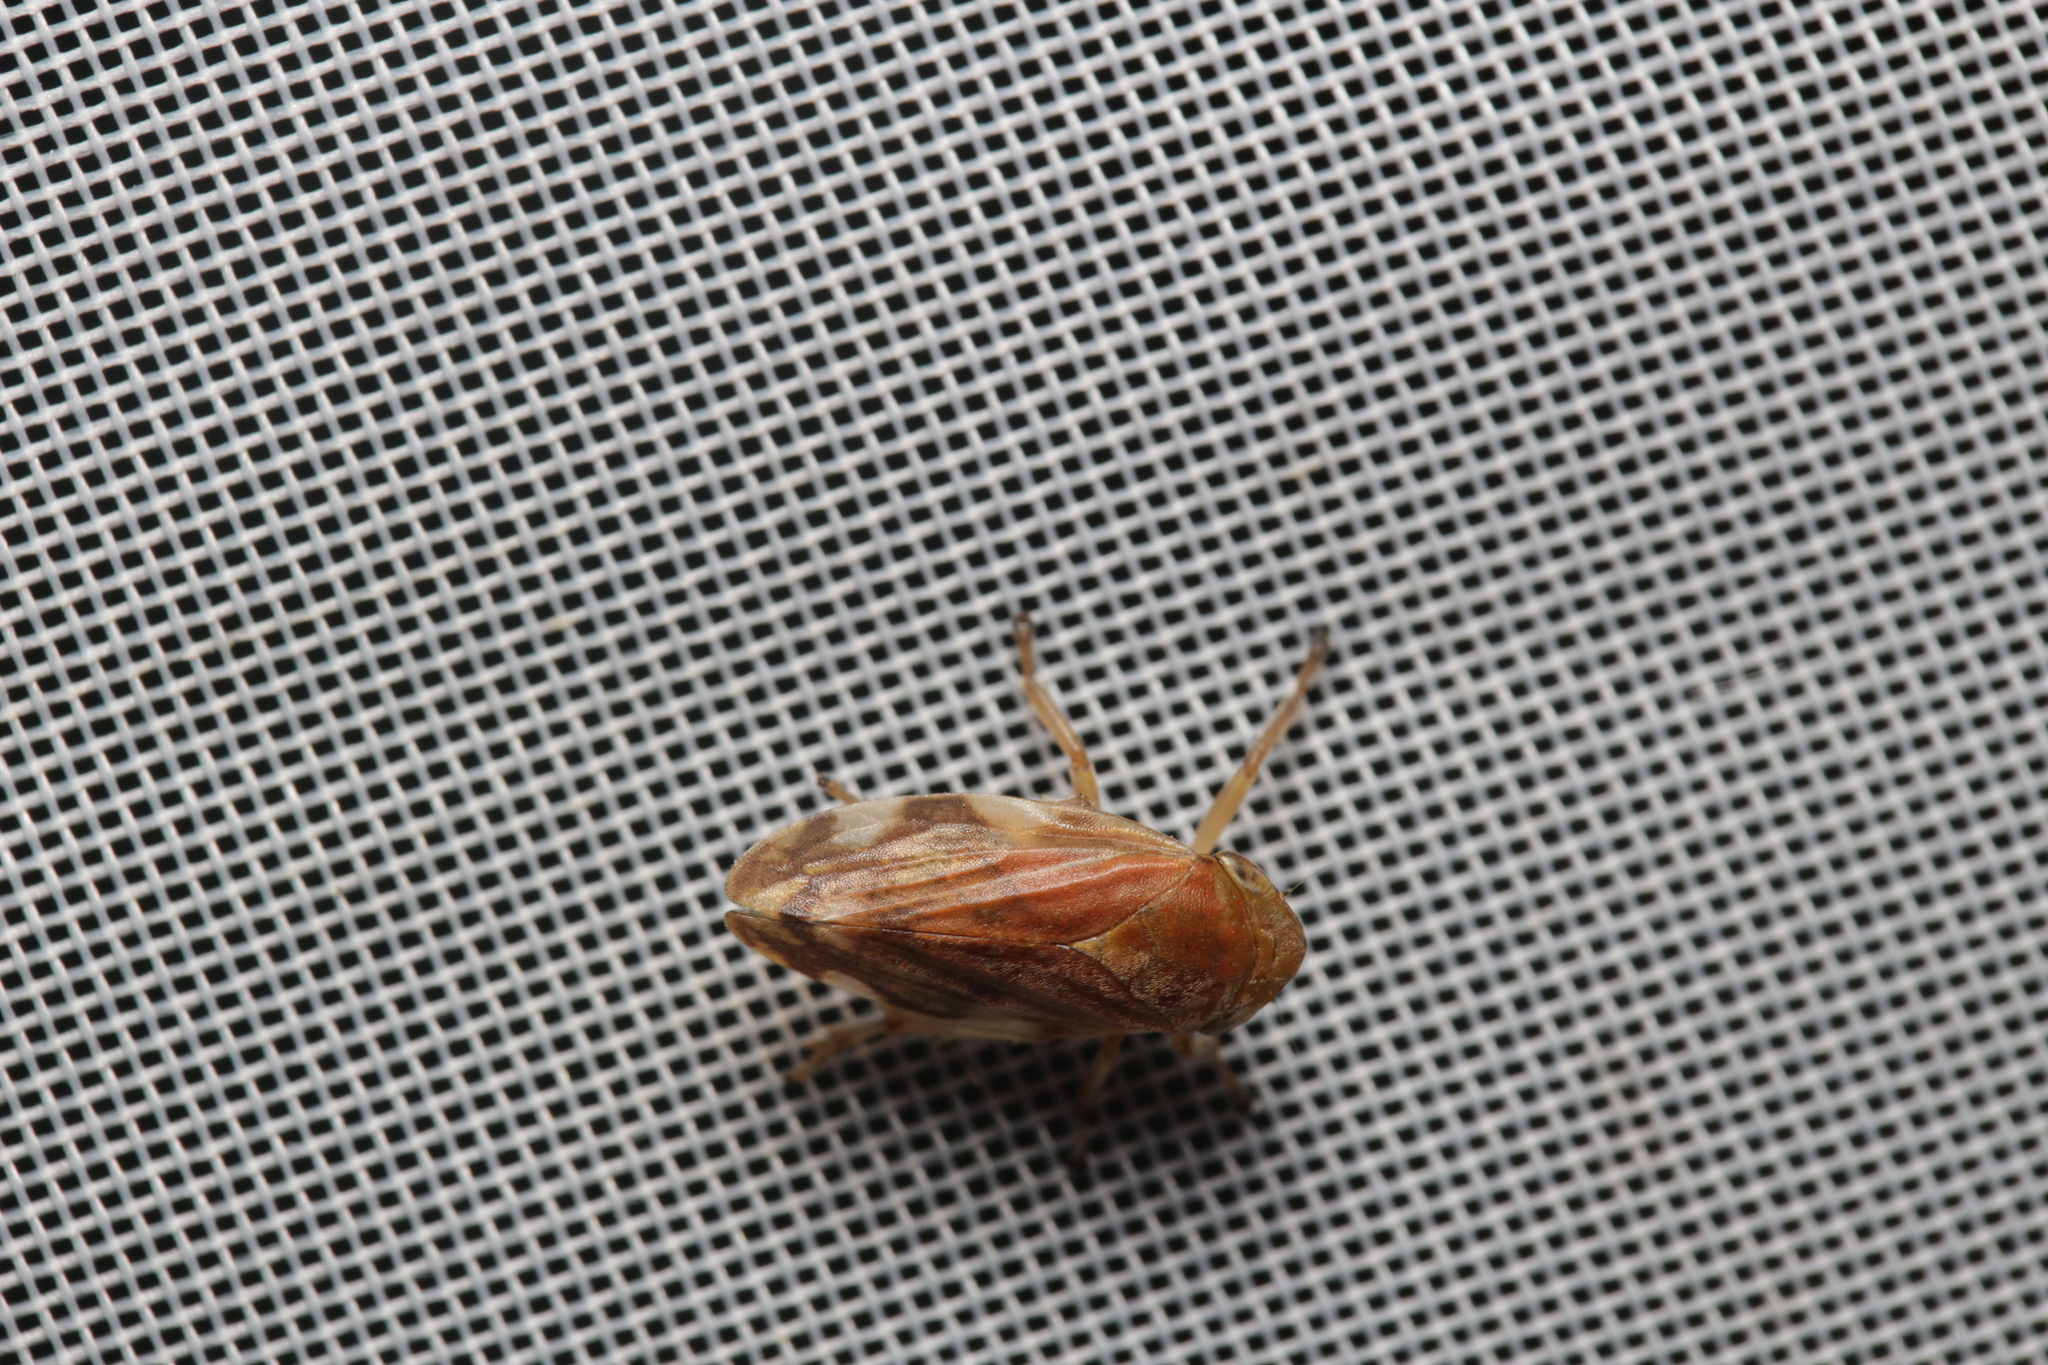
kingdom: Animalia
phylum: Arthropoda
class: Insecta
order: Hemiptera
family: Aphrophoridae
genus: Philaenus
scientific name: Philaenus spumarius
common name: Meadow spittlebug
